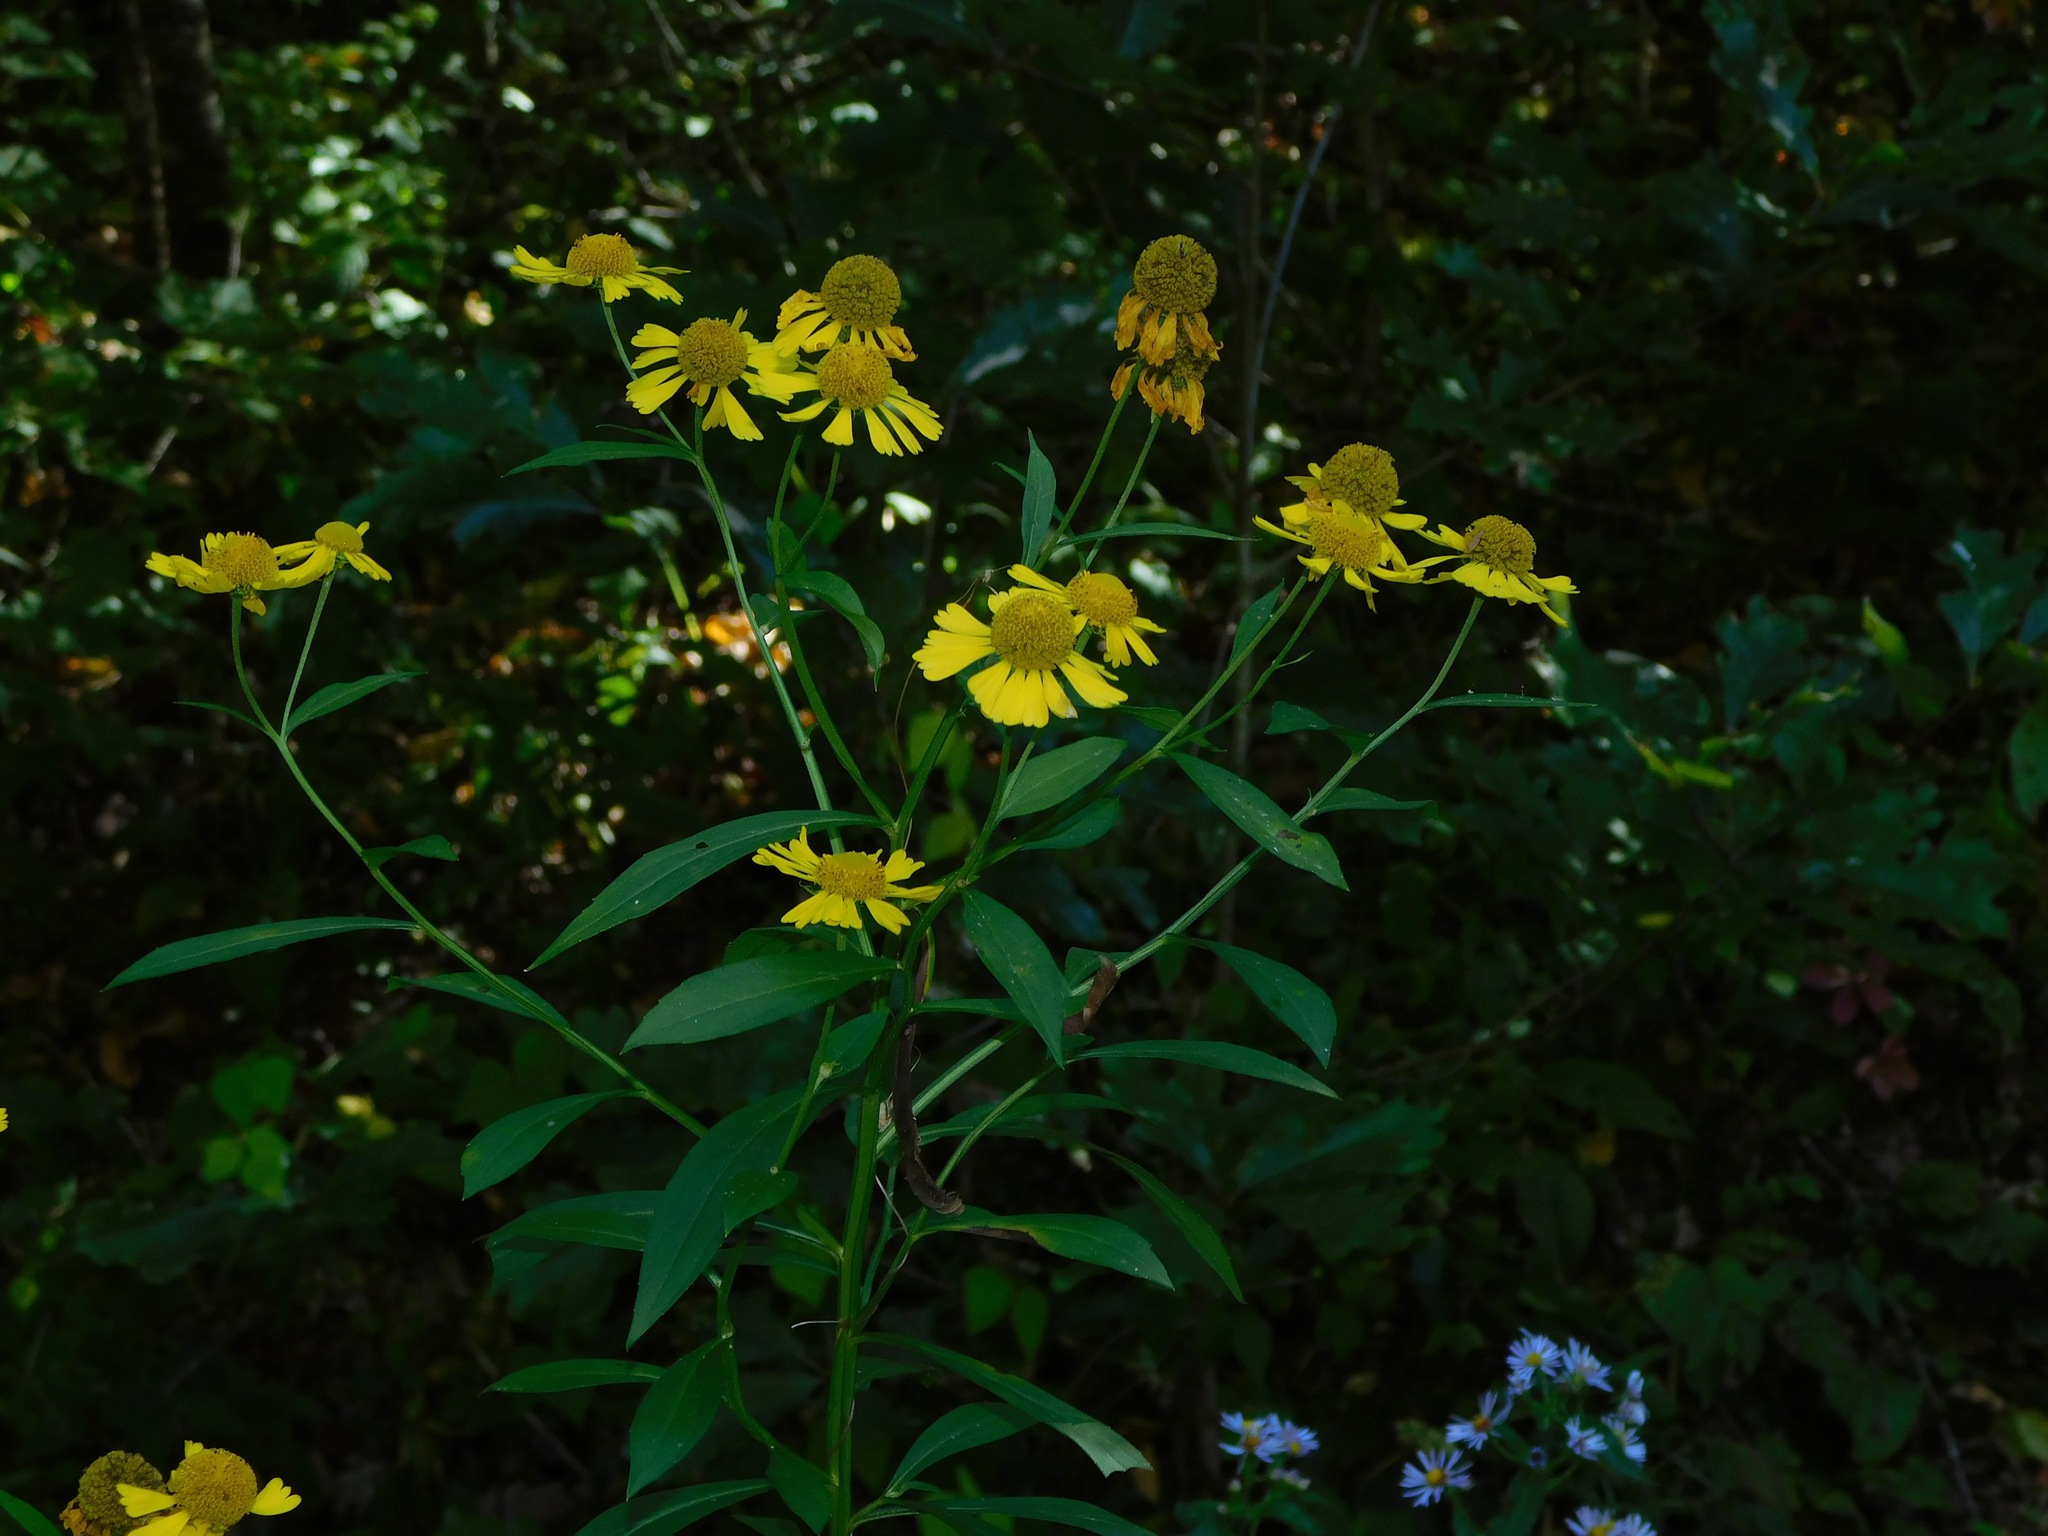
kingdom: Plantae
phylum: Tracheophyta
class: Magnoliopsida
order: Asterales
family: Asteraceae
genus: Helenium
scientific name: Helenium autumnale
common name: Sneezeweed
